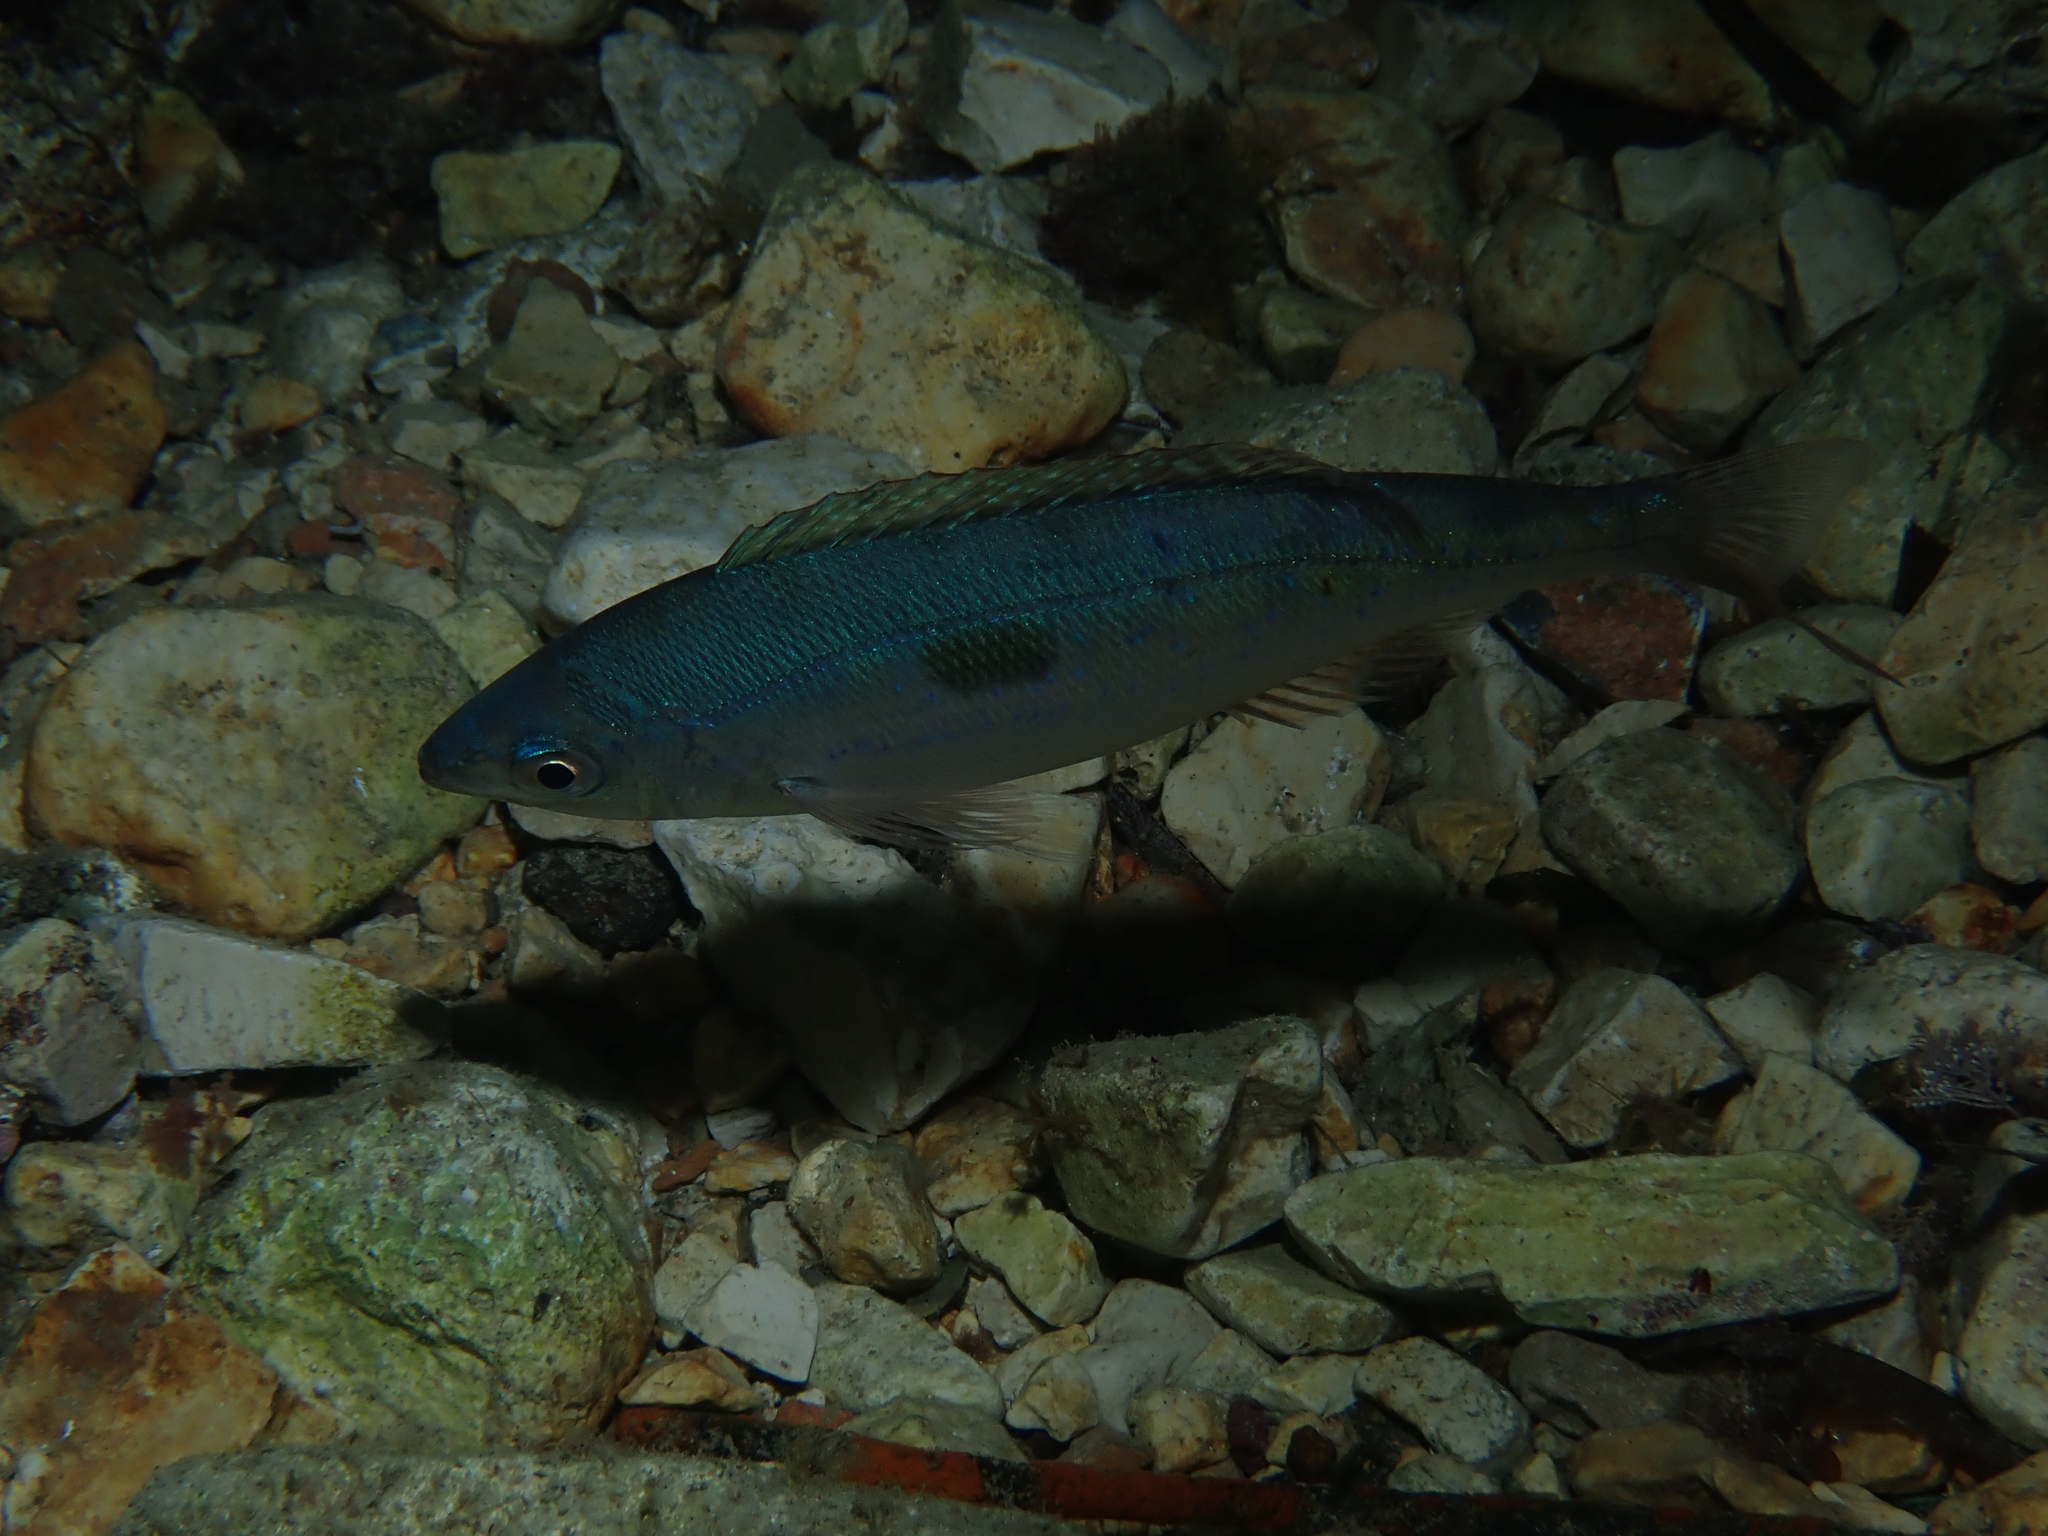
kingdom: Animalia
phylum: Chordata
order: Perciformes
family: Sparidae
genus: Spicara
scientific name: Spicara maena
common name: Blotched picarel
